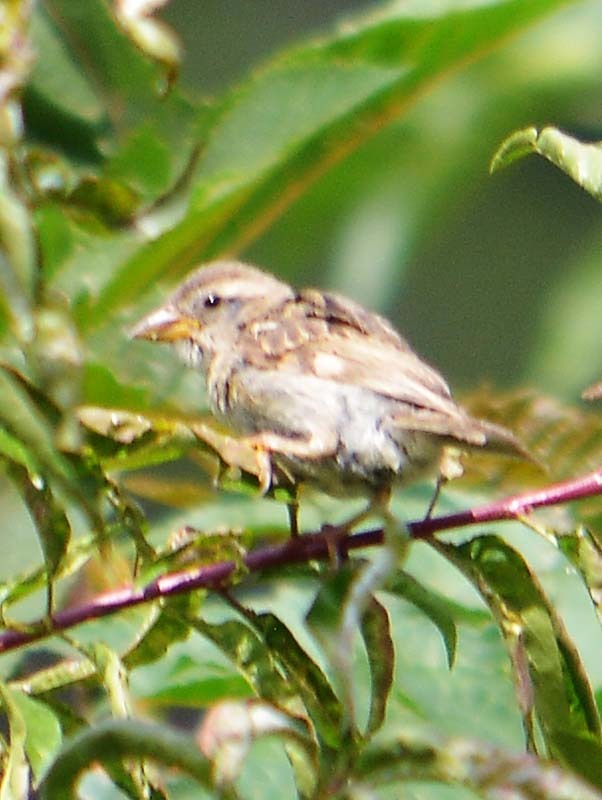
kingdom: Animalia
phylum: Chordata
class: Aves
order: Passeriformes
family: Passeridae
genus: Passer
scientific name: Passer domesticus
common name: House sparrow
